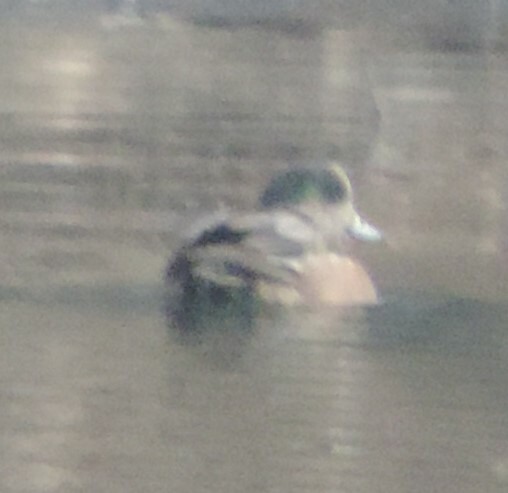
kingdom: Animalia
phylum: Chordata
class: Aves
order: Anseriformes
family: Anatidae
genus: Mareca
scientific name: Mareca americana
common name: American wigeon
